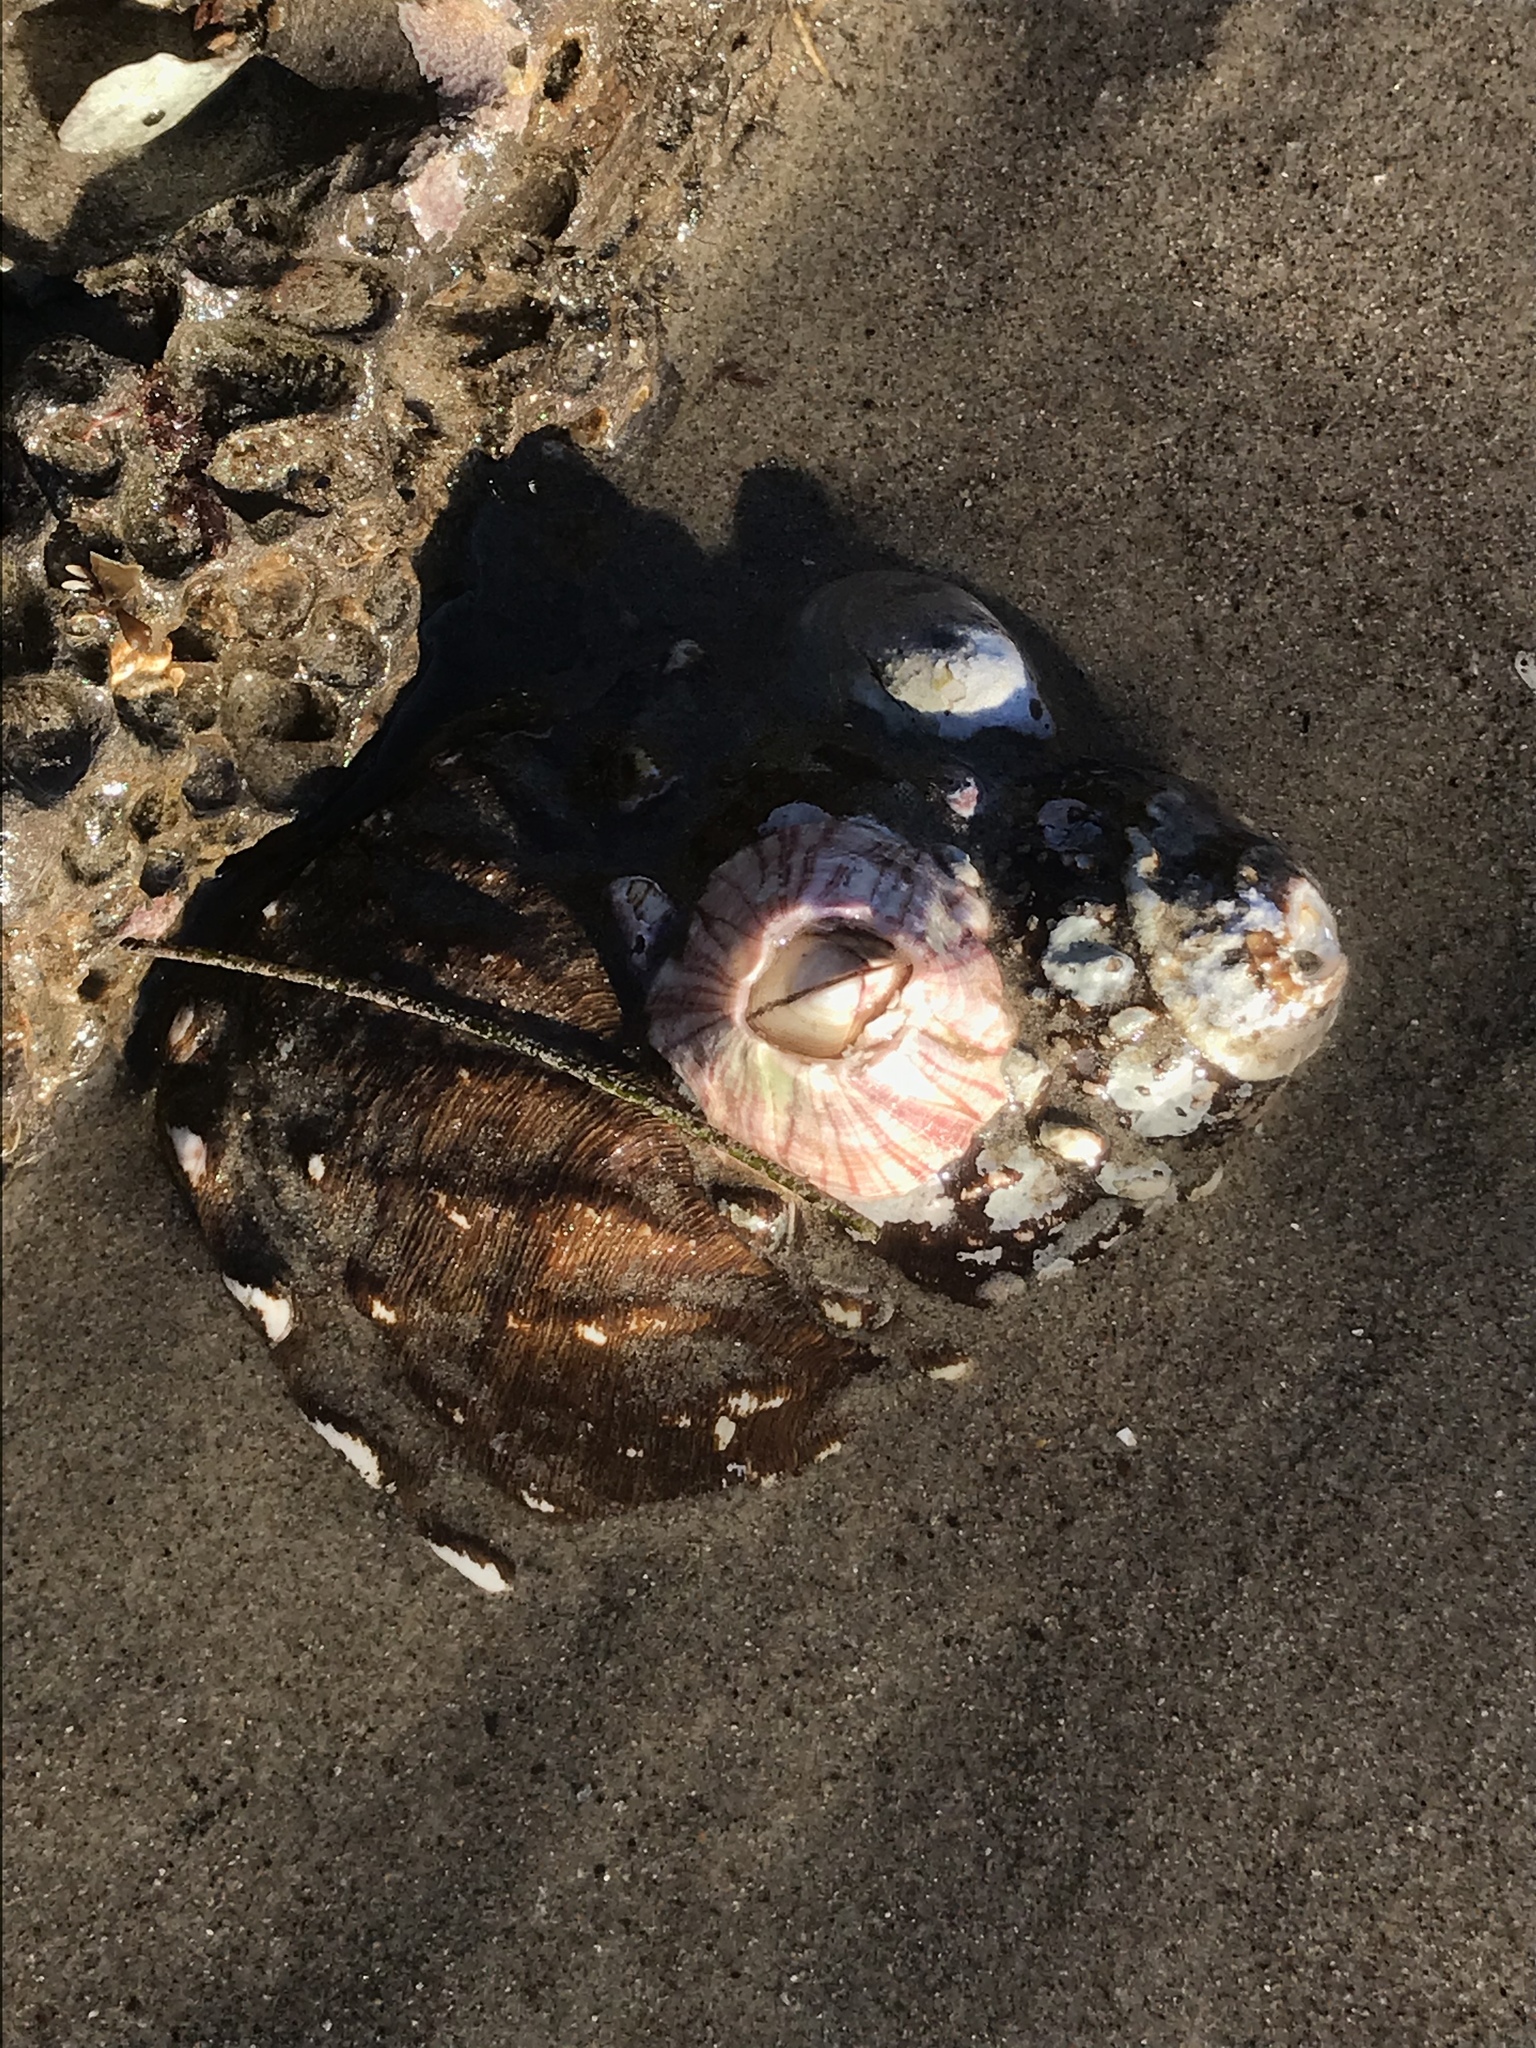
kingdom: Animalia
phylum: Mollusca
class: Gastropoda
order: Trochida
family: Turbinidae
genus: Megastraea
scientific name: Megastraea undosa
